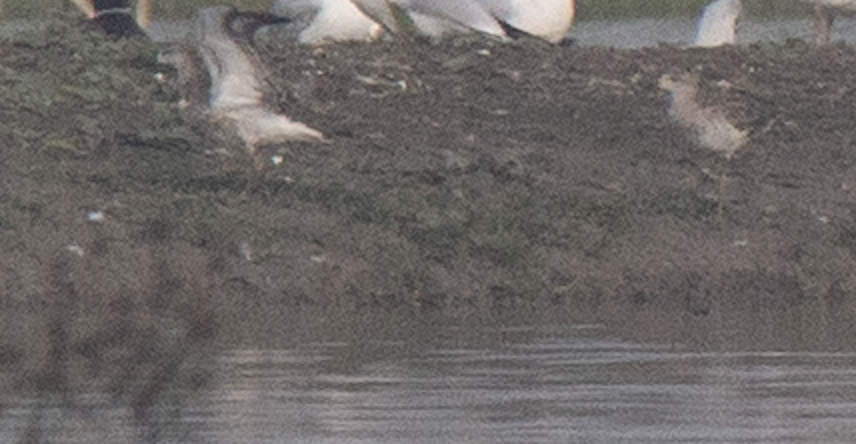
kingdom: Animalia
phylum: Chordata
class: Aves
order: Charadriiformes
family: Scolopacidae
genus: Calidris
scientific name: Calidris pugnax
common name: Ruff
